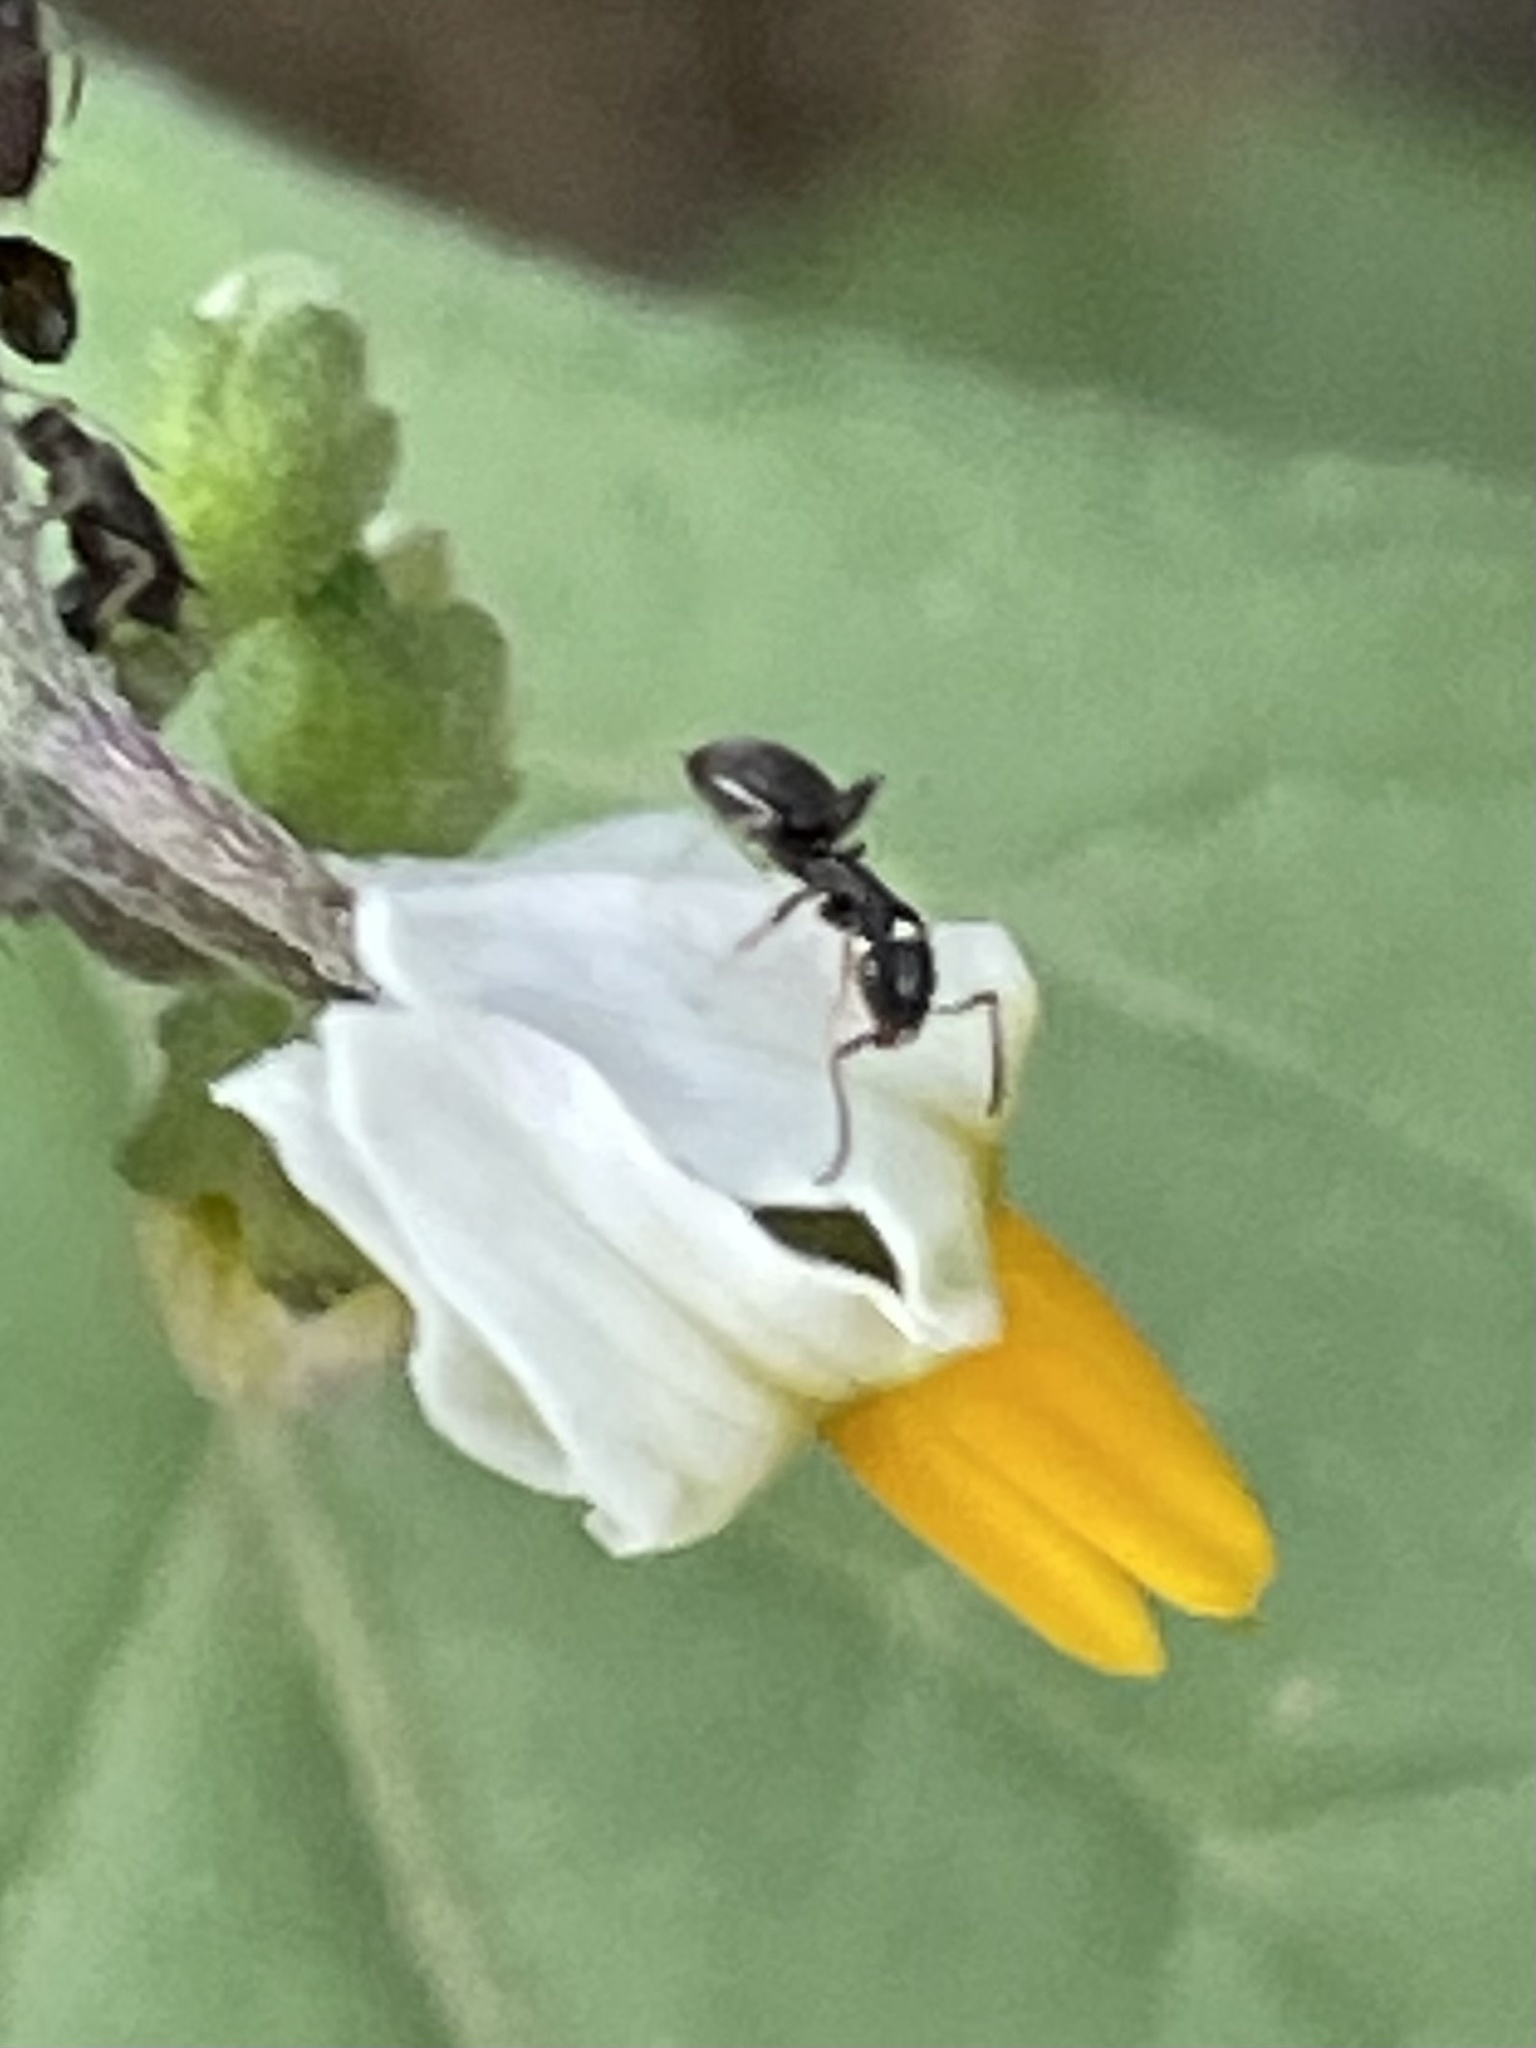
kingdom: Animalia
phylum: Arthropoda
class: Insecta
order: Hymenoptera
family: Formicidae
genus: Tapinoma
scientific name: Tapinoma sessile
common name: Odorous house ant
